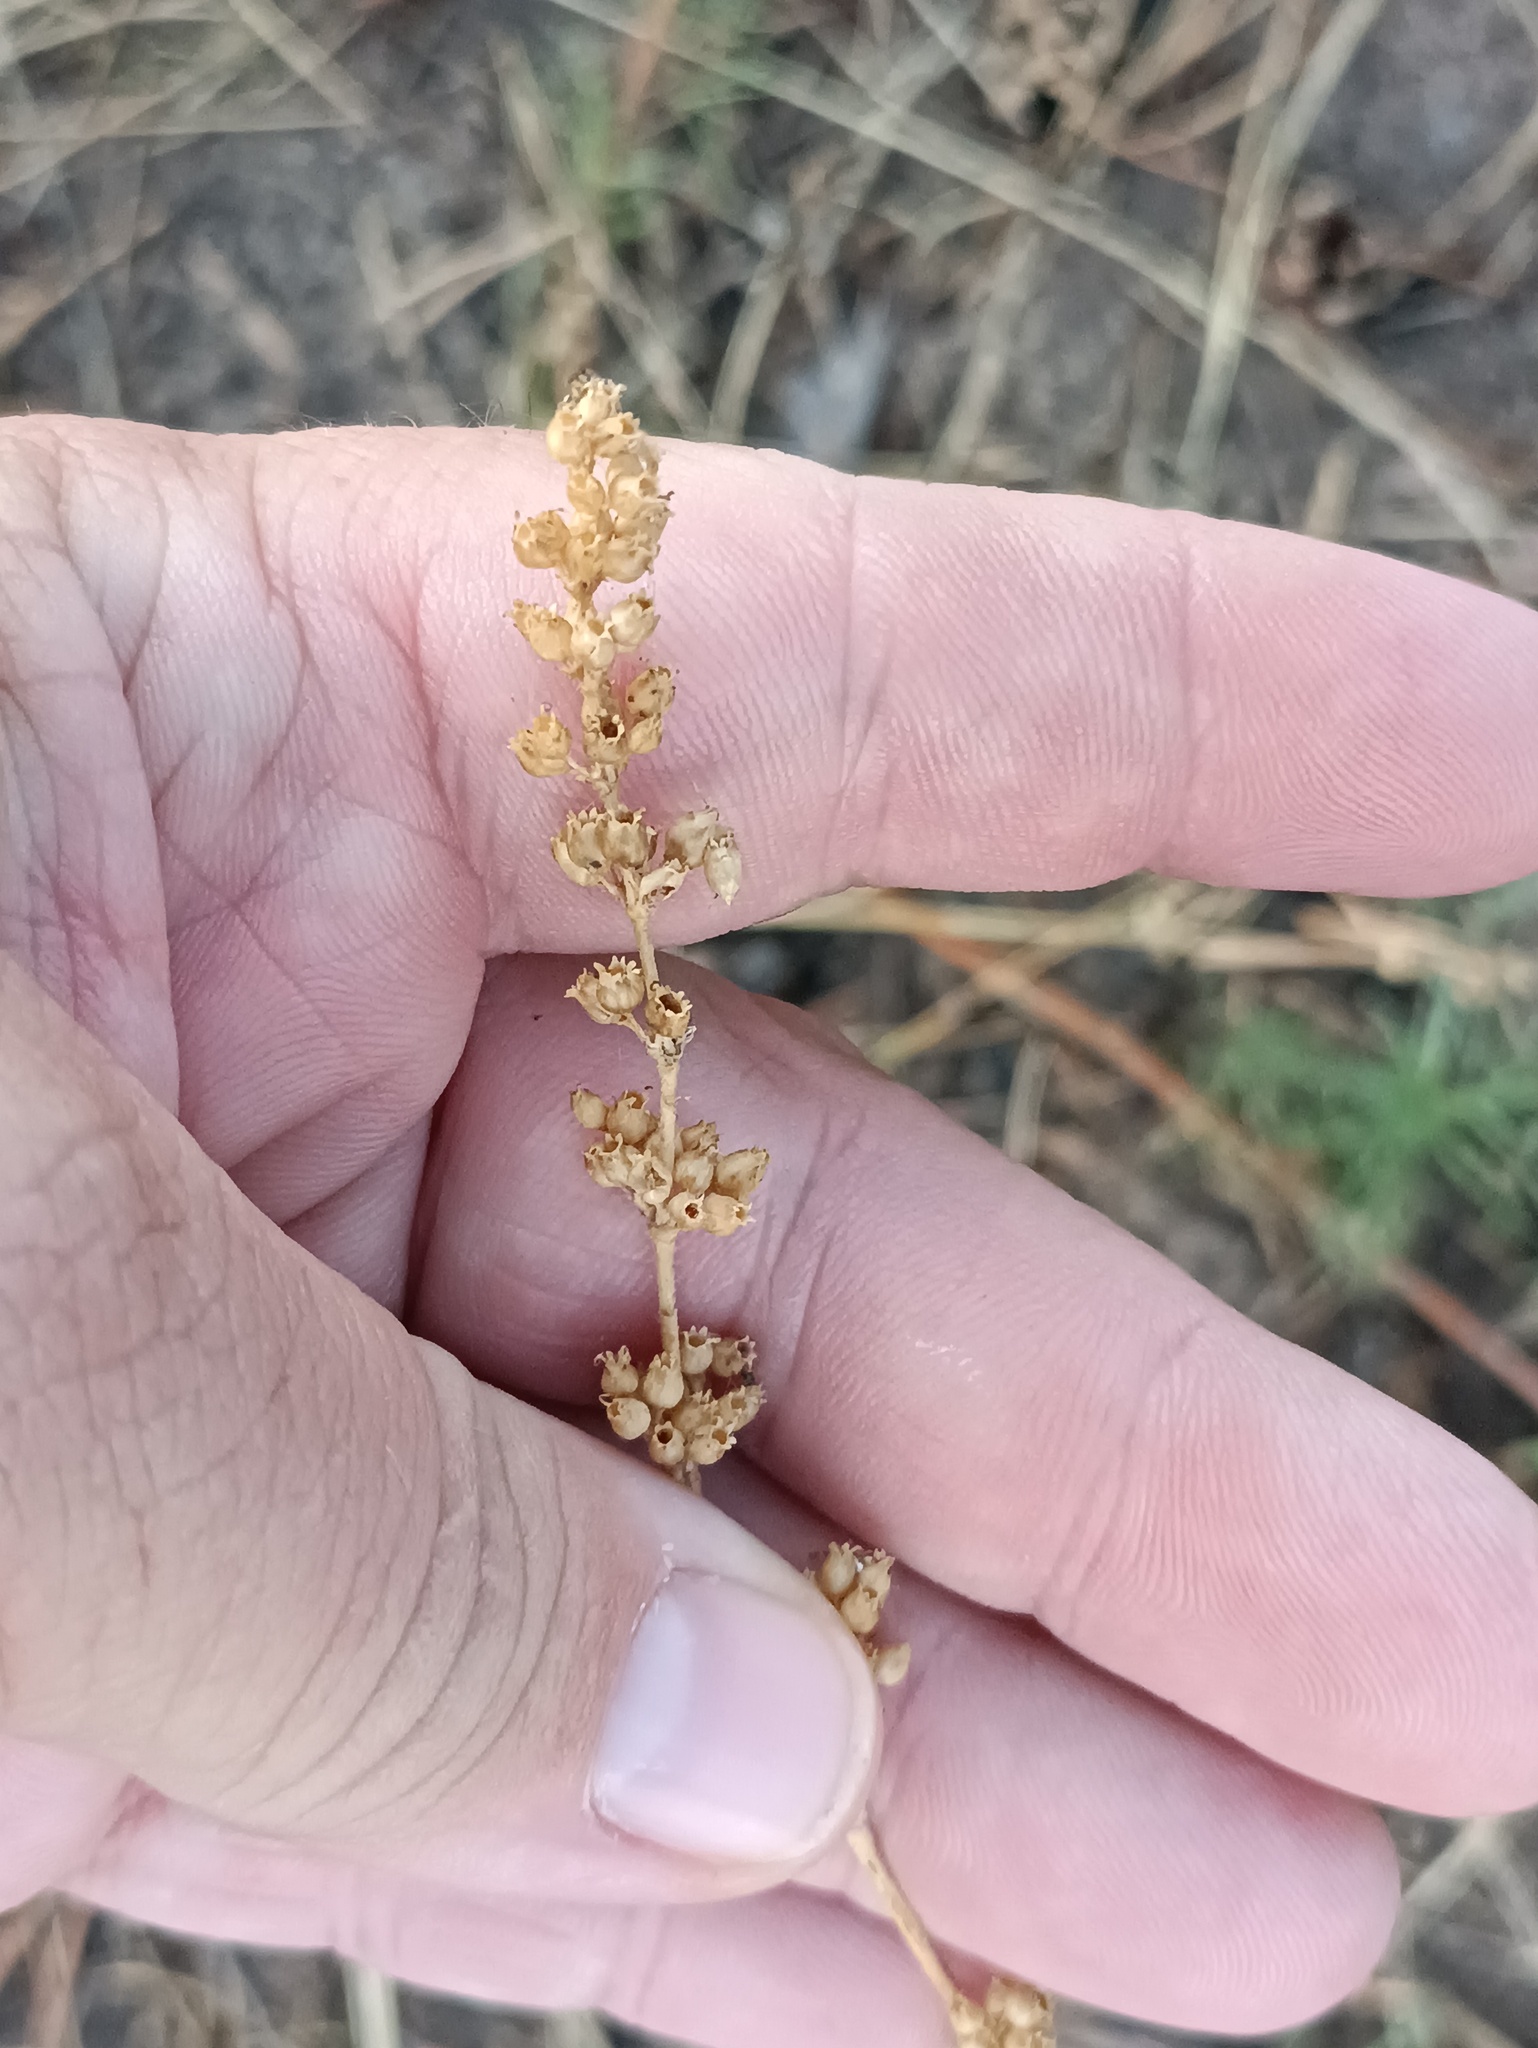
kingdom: Plantae
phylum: Tracheophyta
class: Magnoliopsida
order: Caryophyllales
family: Caryophyllaceae
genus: Silene
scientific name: Silene borysthenica
